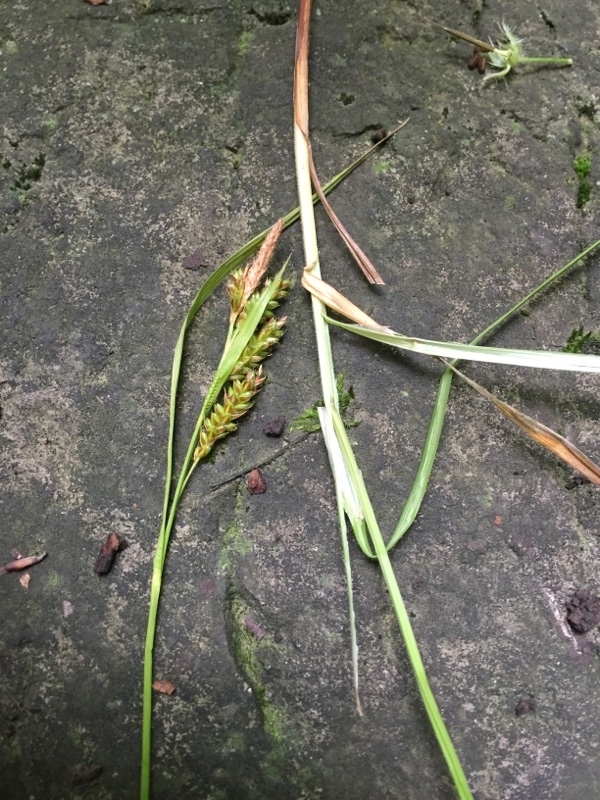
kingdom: Plantae
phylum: Tracheophyta
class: Liliopsida
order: Poales
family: Cyperaceae
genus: Carex
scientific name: Carex pallescens
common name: Pale sedge
